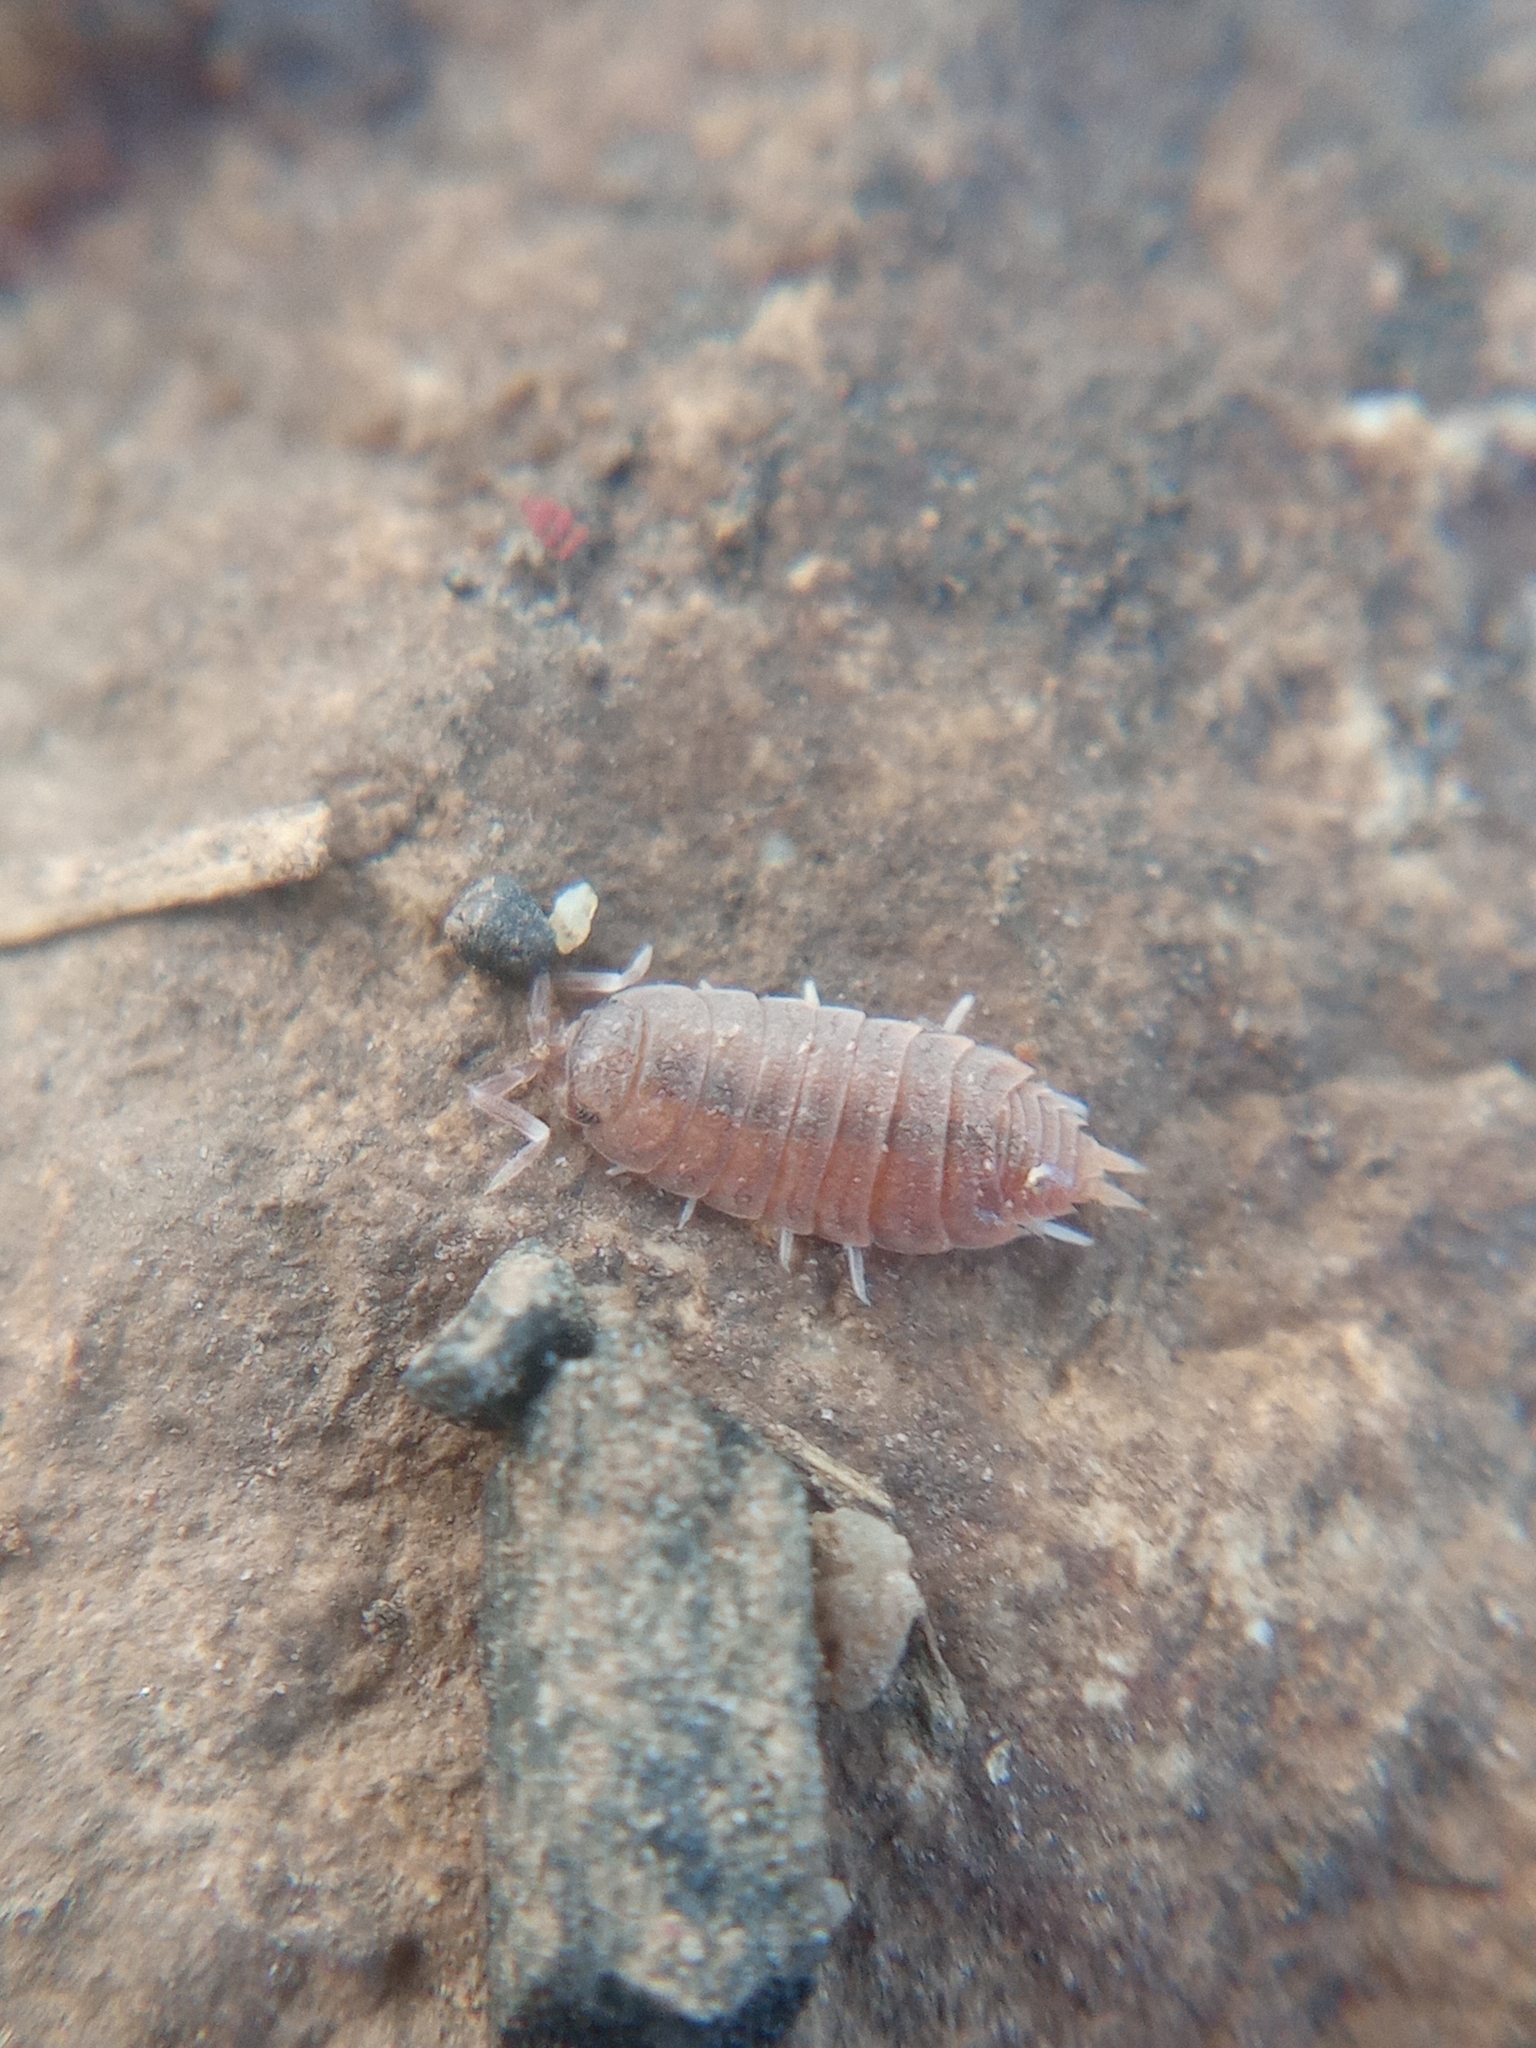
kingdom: Animalia
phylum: Arthropoda
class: Malacostraca
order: Isopoda
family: Porcellionidae
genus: Porcellionides
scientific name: Porcellionides pruinosus
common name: Plum woodlouse
